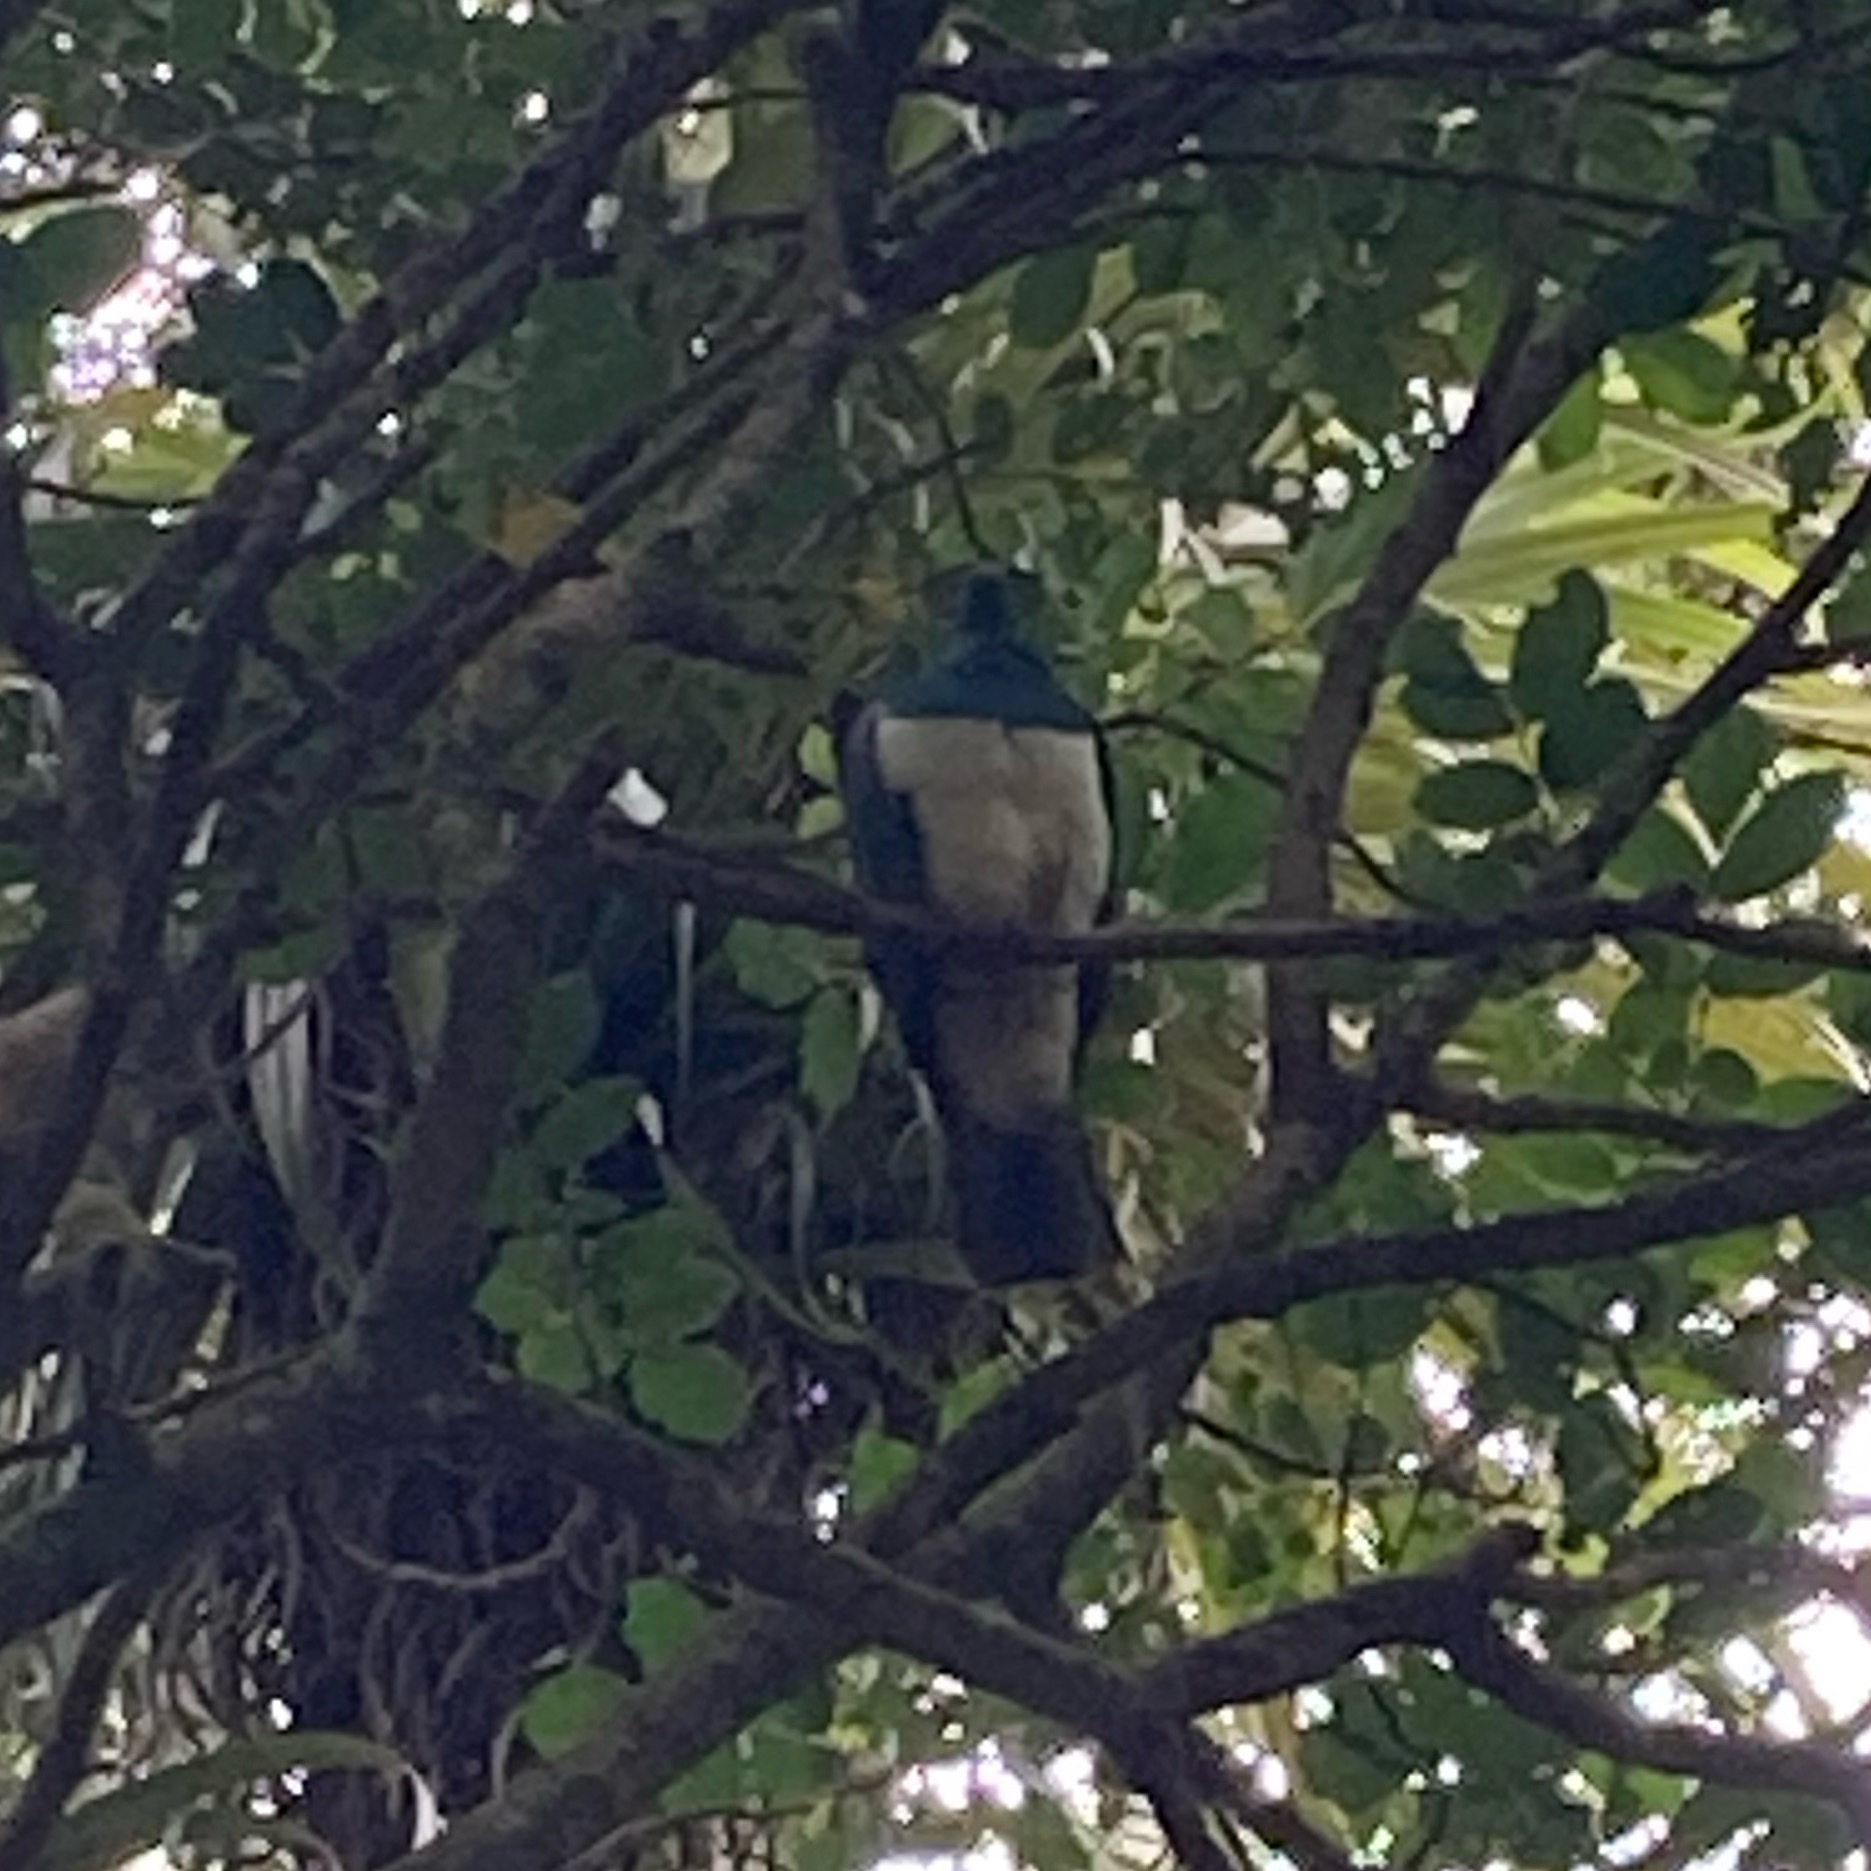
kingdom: Animalia
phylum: Chordata
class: Aves
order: Columbiformes
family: Columbidae
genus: Hemiphaga
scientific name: Hemiphaga novaeseelandiae
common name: New zealand pigeon
